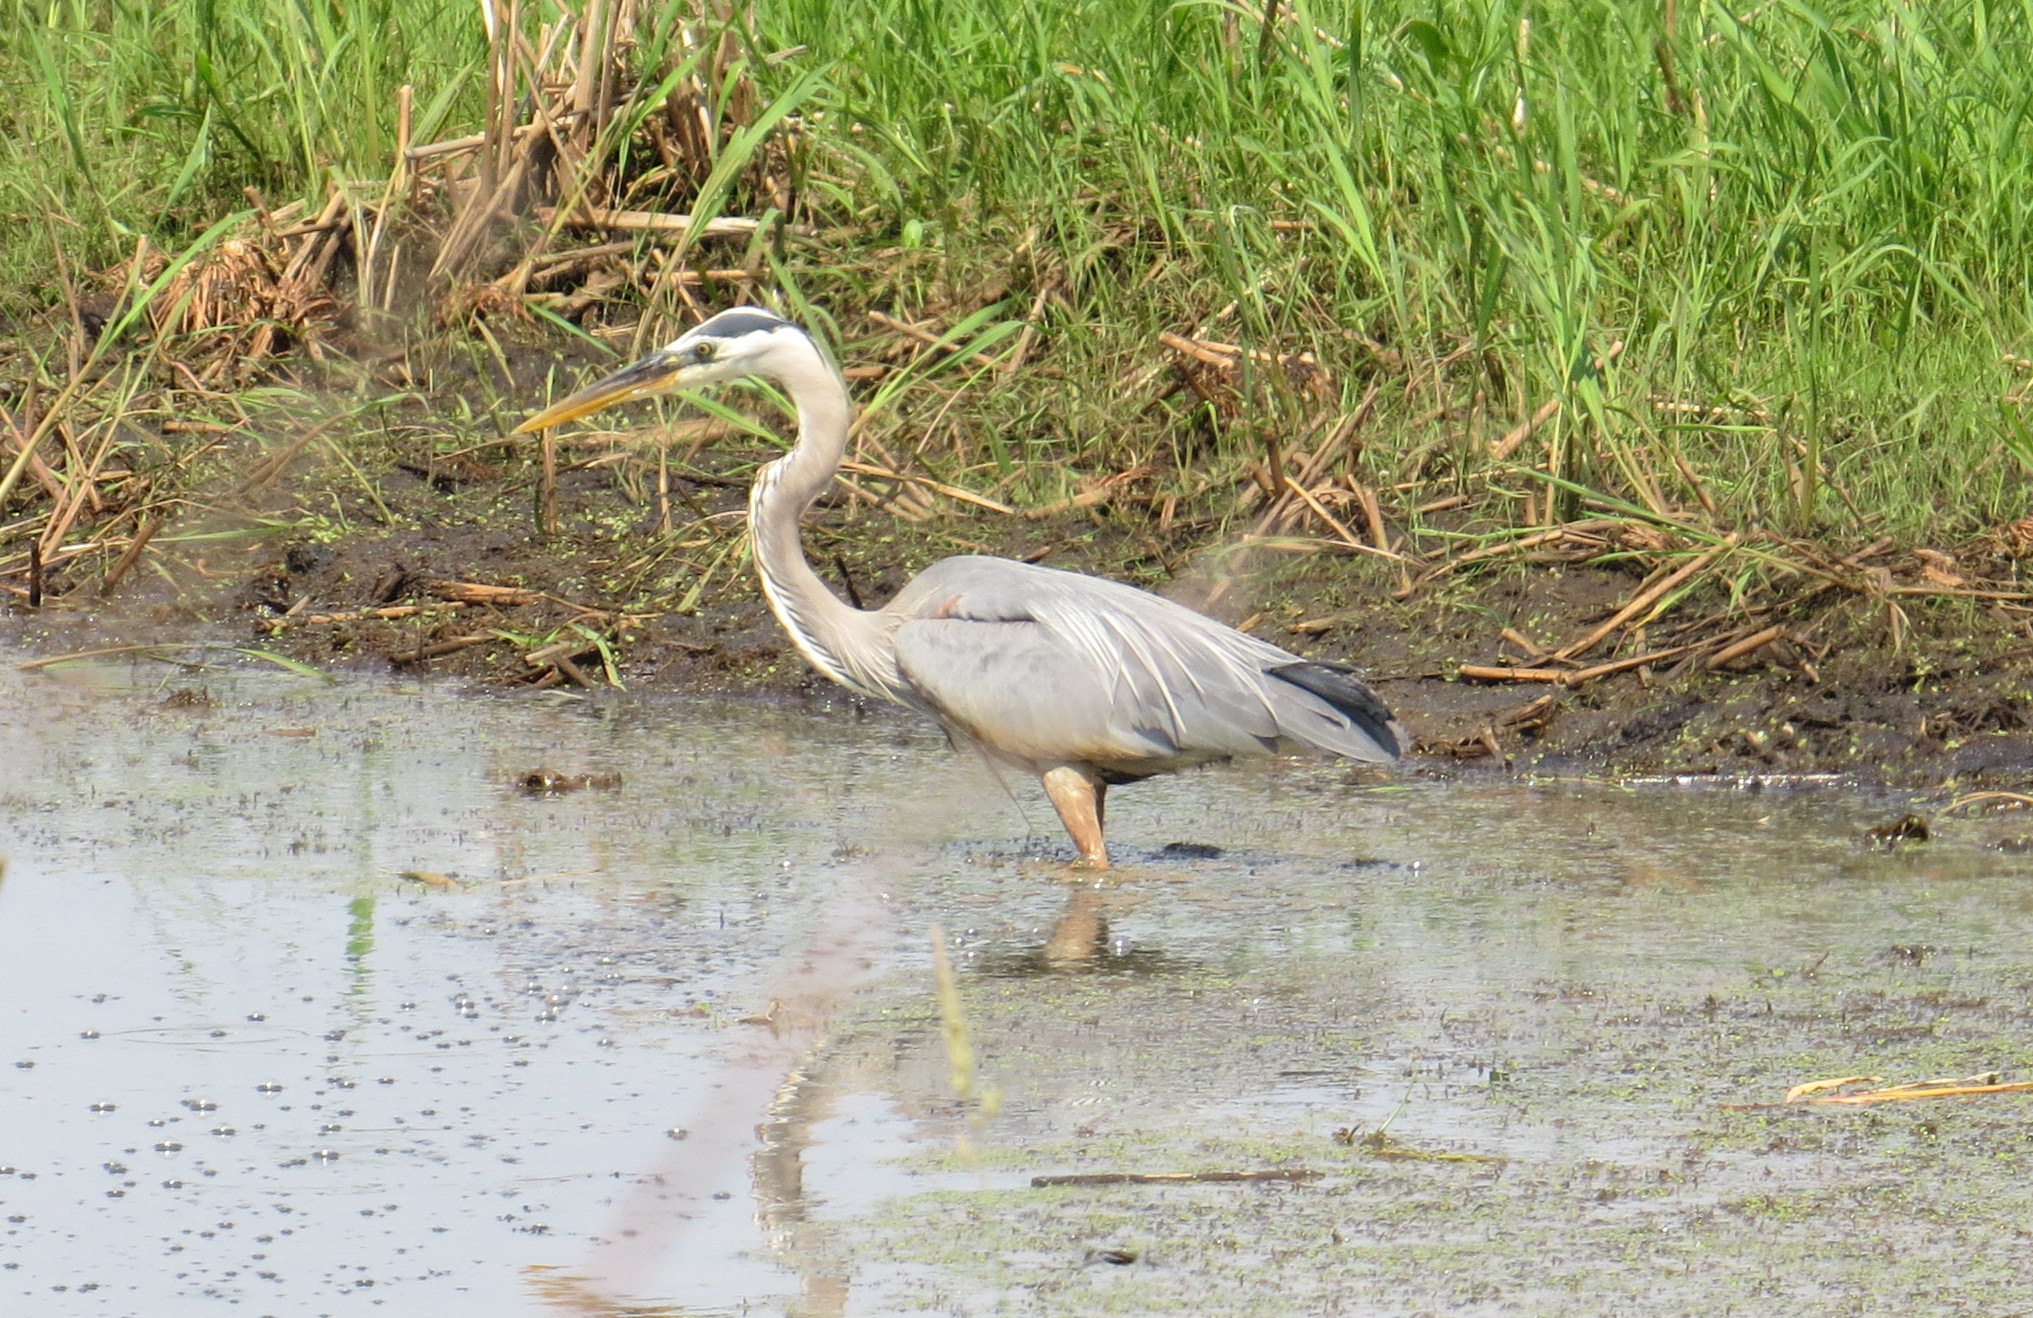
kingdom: Animalia
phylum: Chordata
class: Aves
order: Pelecaniformes
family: Ardeidae
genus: Ardea
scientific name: Ardea herodias
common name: Great blue heron
